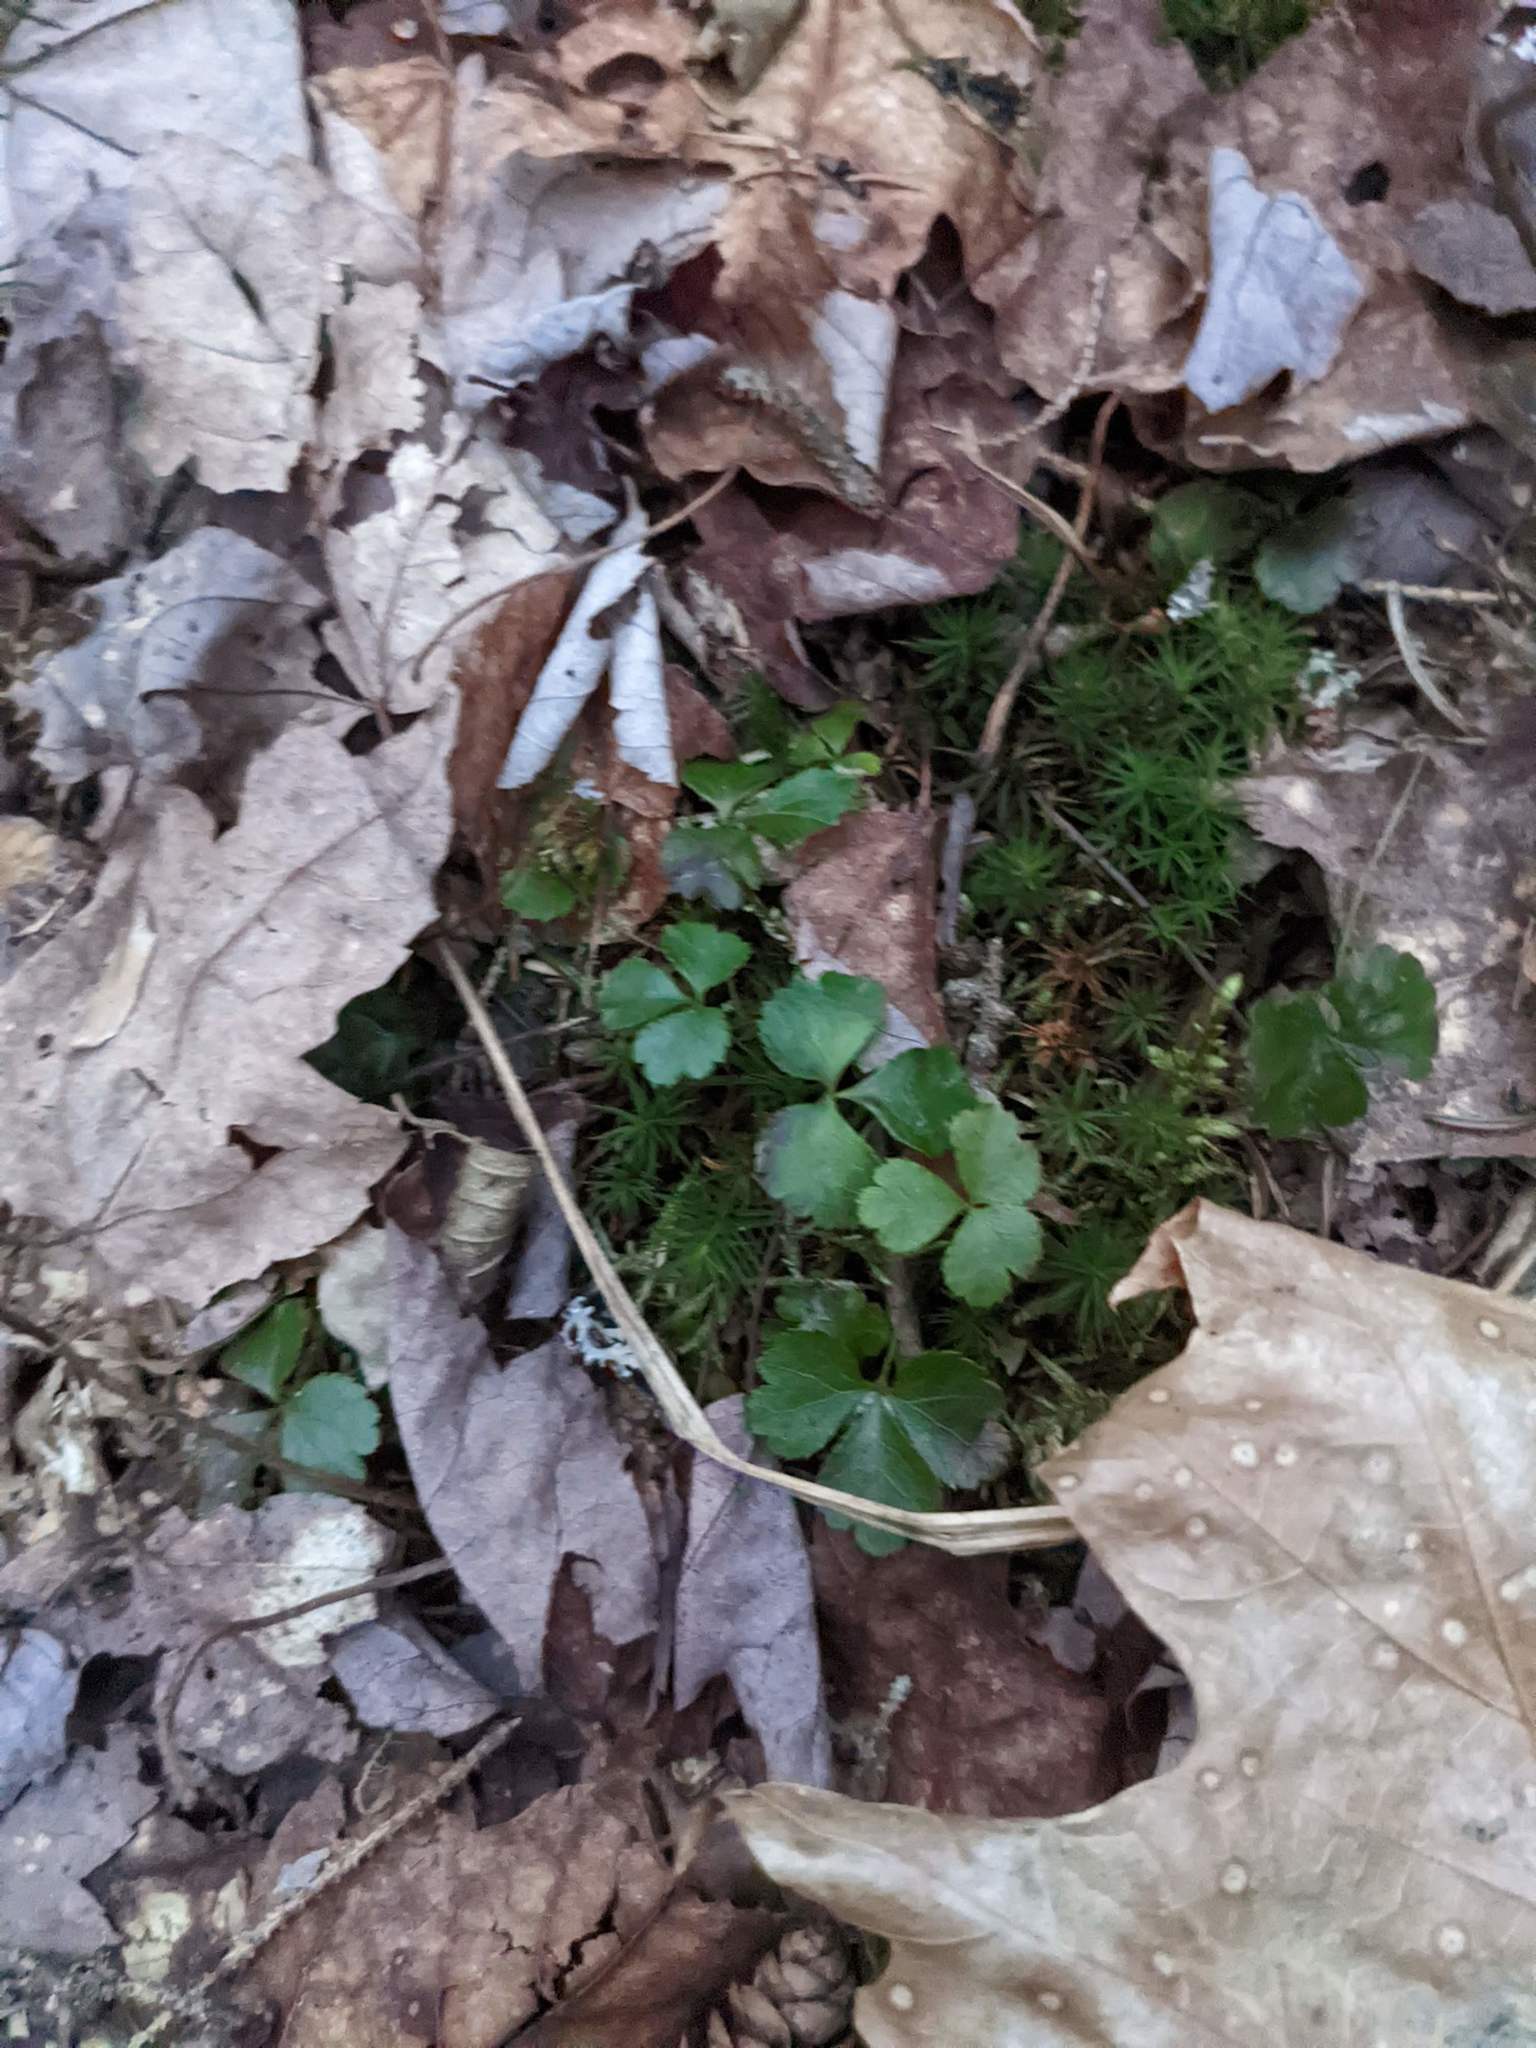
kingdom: Plantae
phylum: Tracheophyta
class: Magnoliopsida
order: Ranunculales
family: Ranunculaceae
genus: Coptis
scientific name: Coptis trifolia
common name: Canker-root
